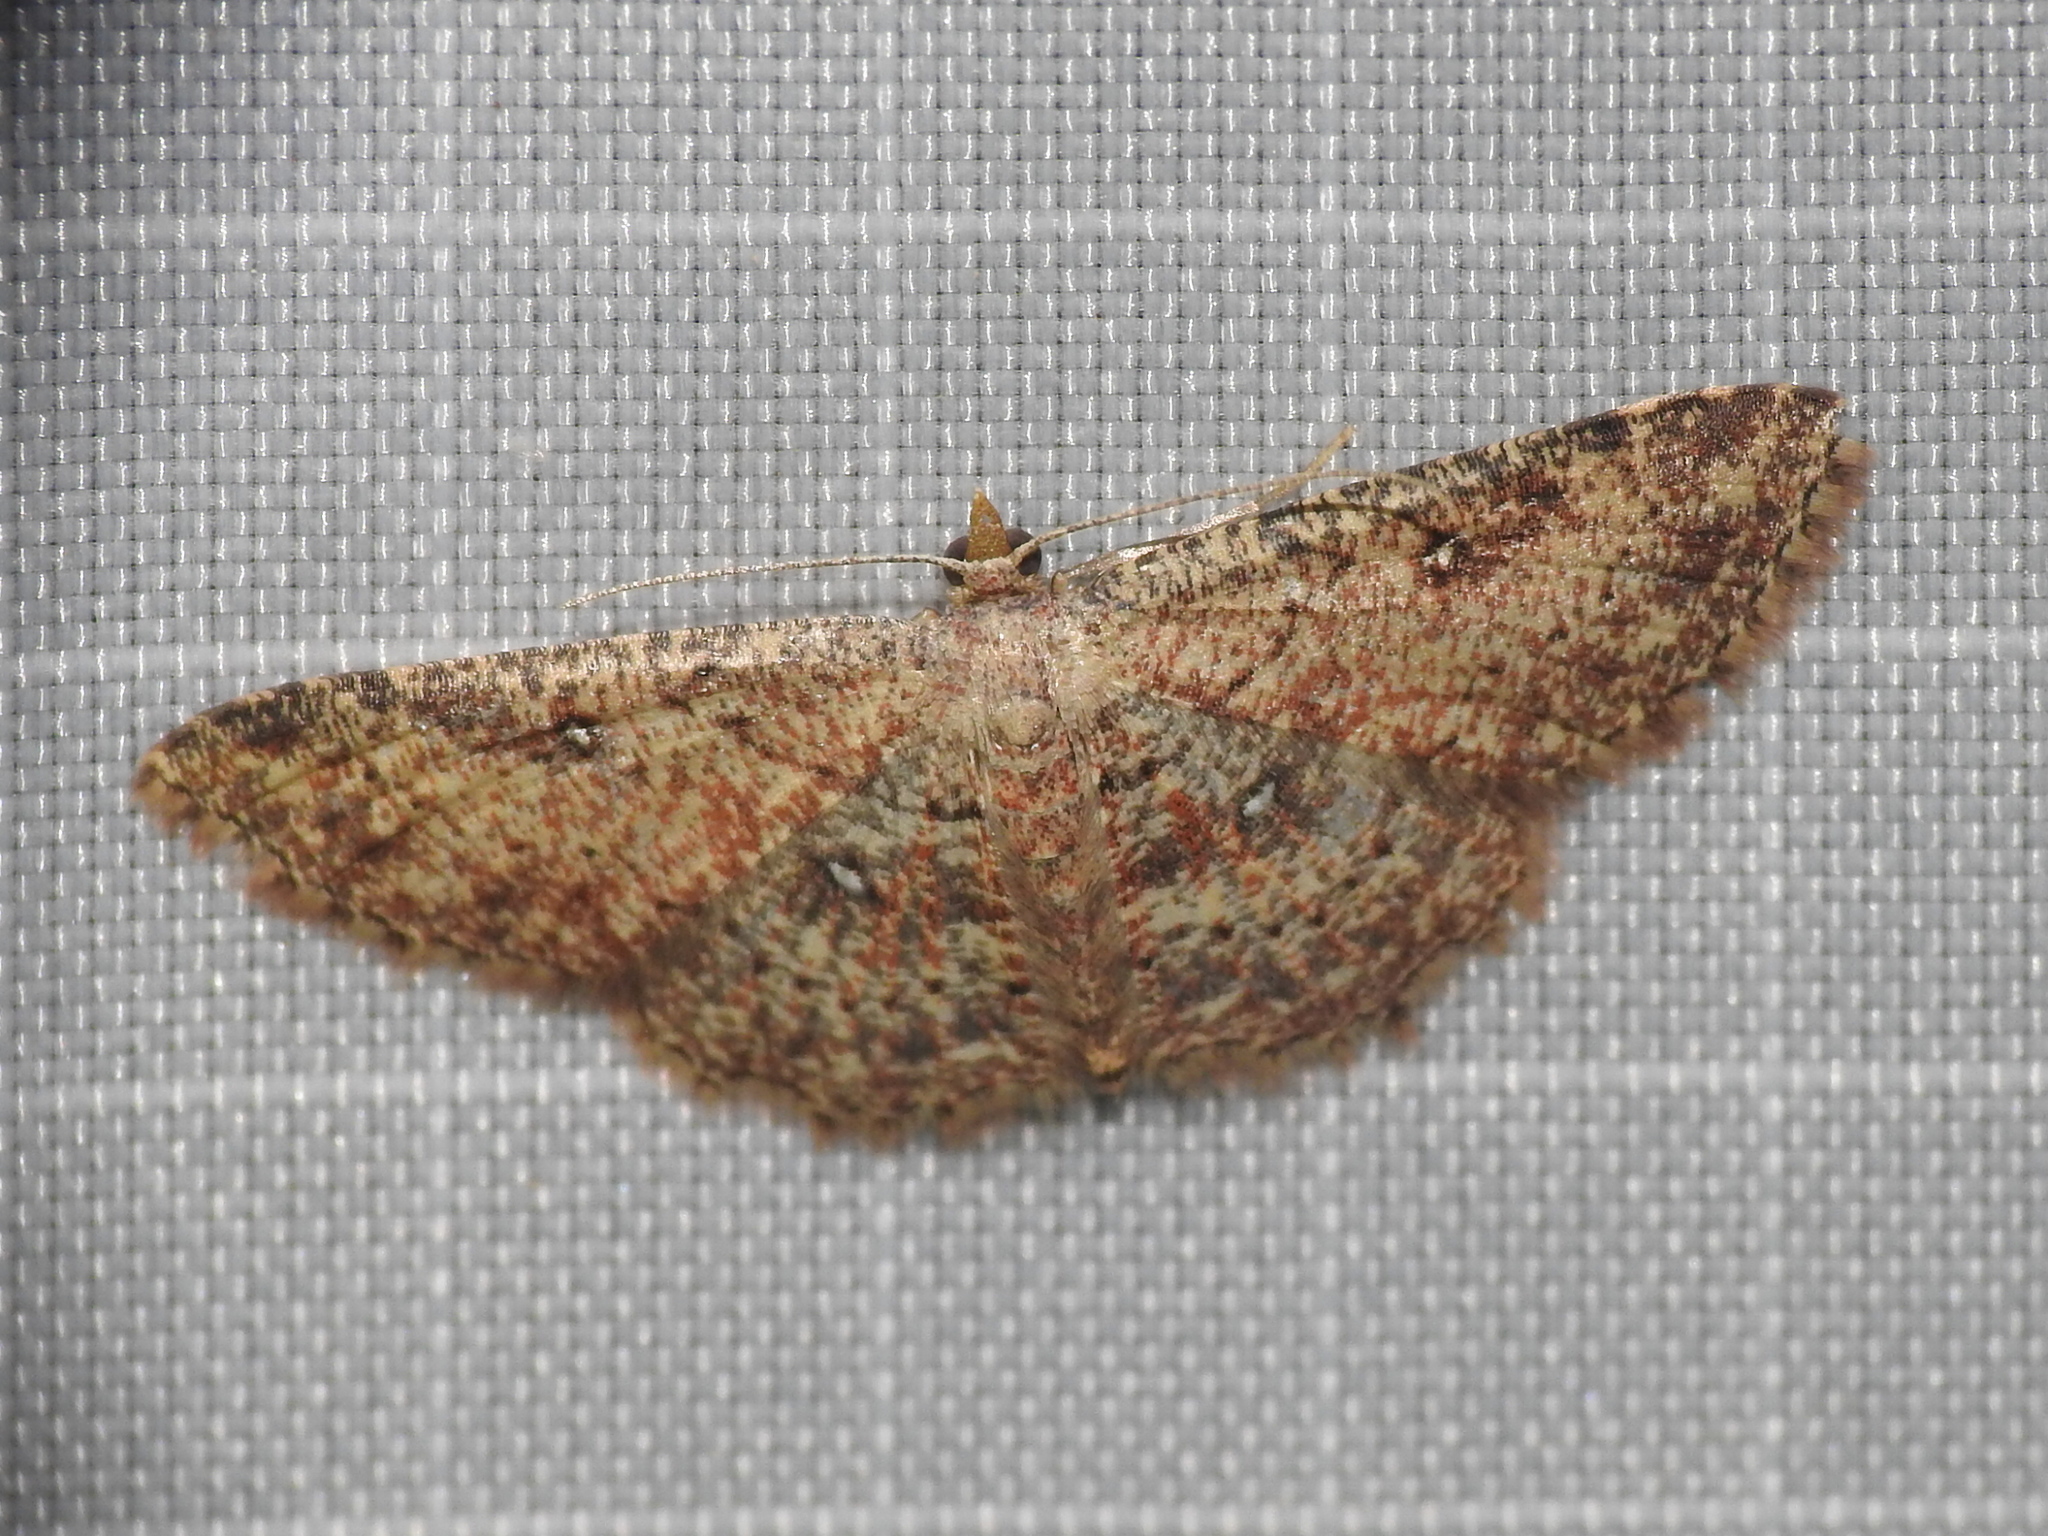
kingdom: Animalia
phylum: Arthropoda
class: Insecta
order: Lepidoptera
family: Geometridae
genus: Cyclophora
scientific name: Cyclophora nanaria
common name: Cankerworm
